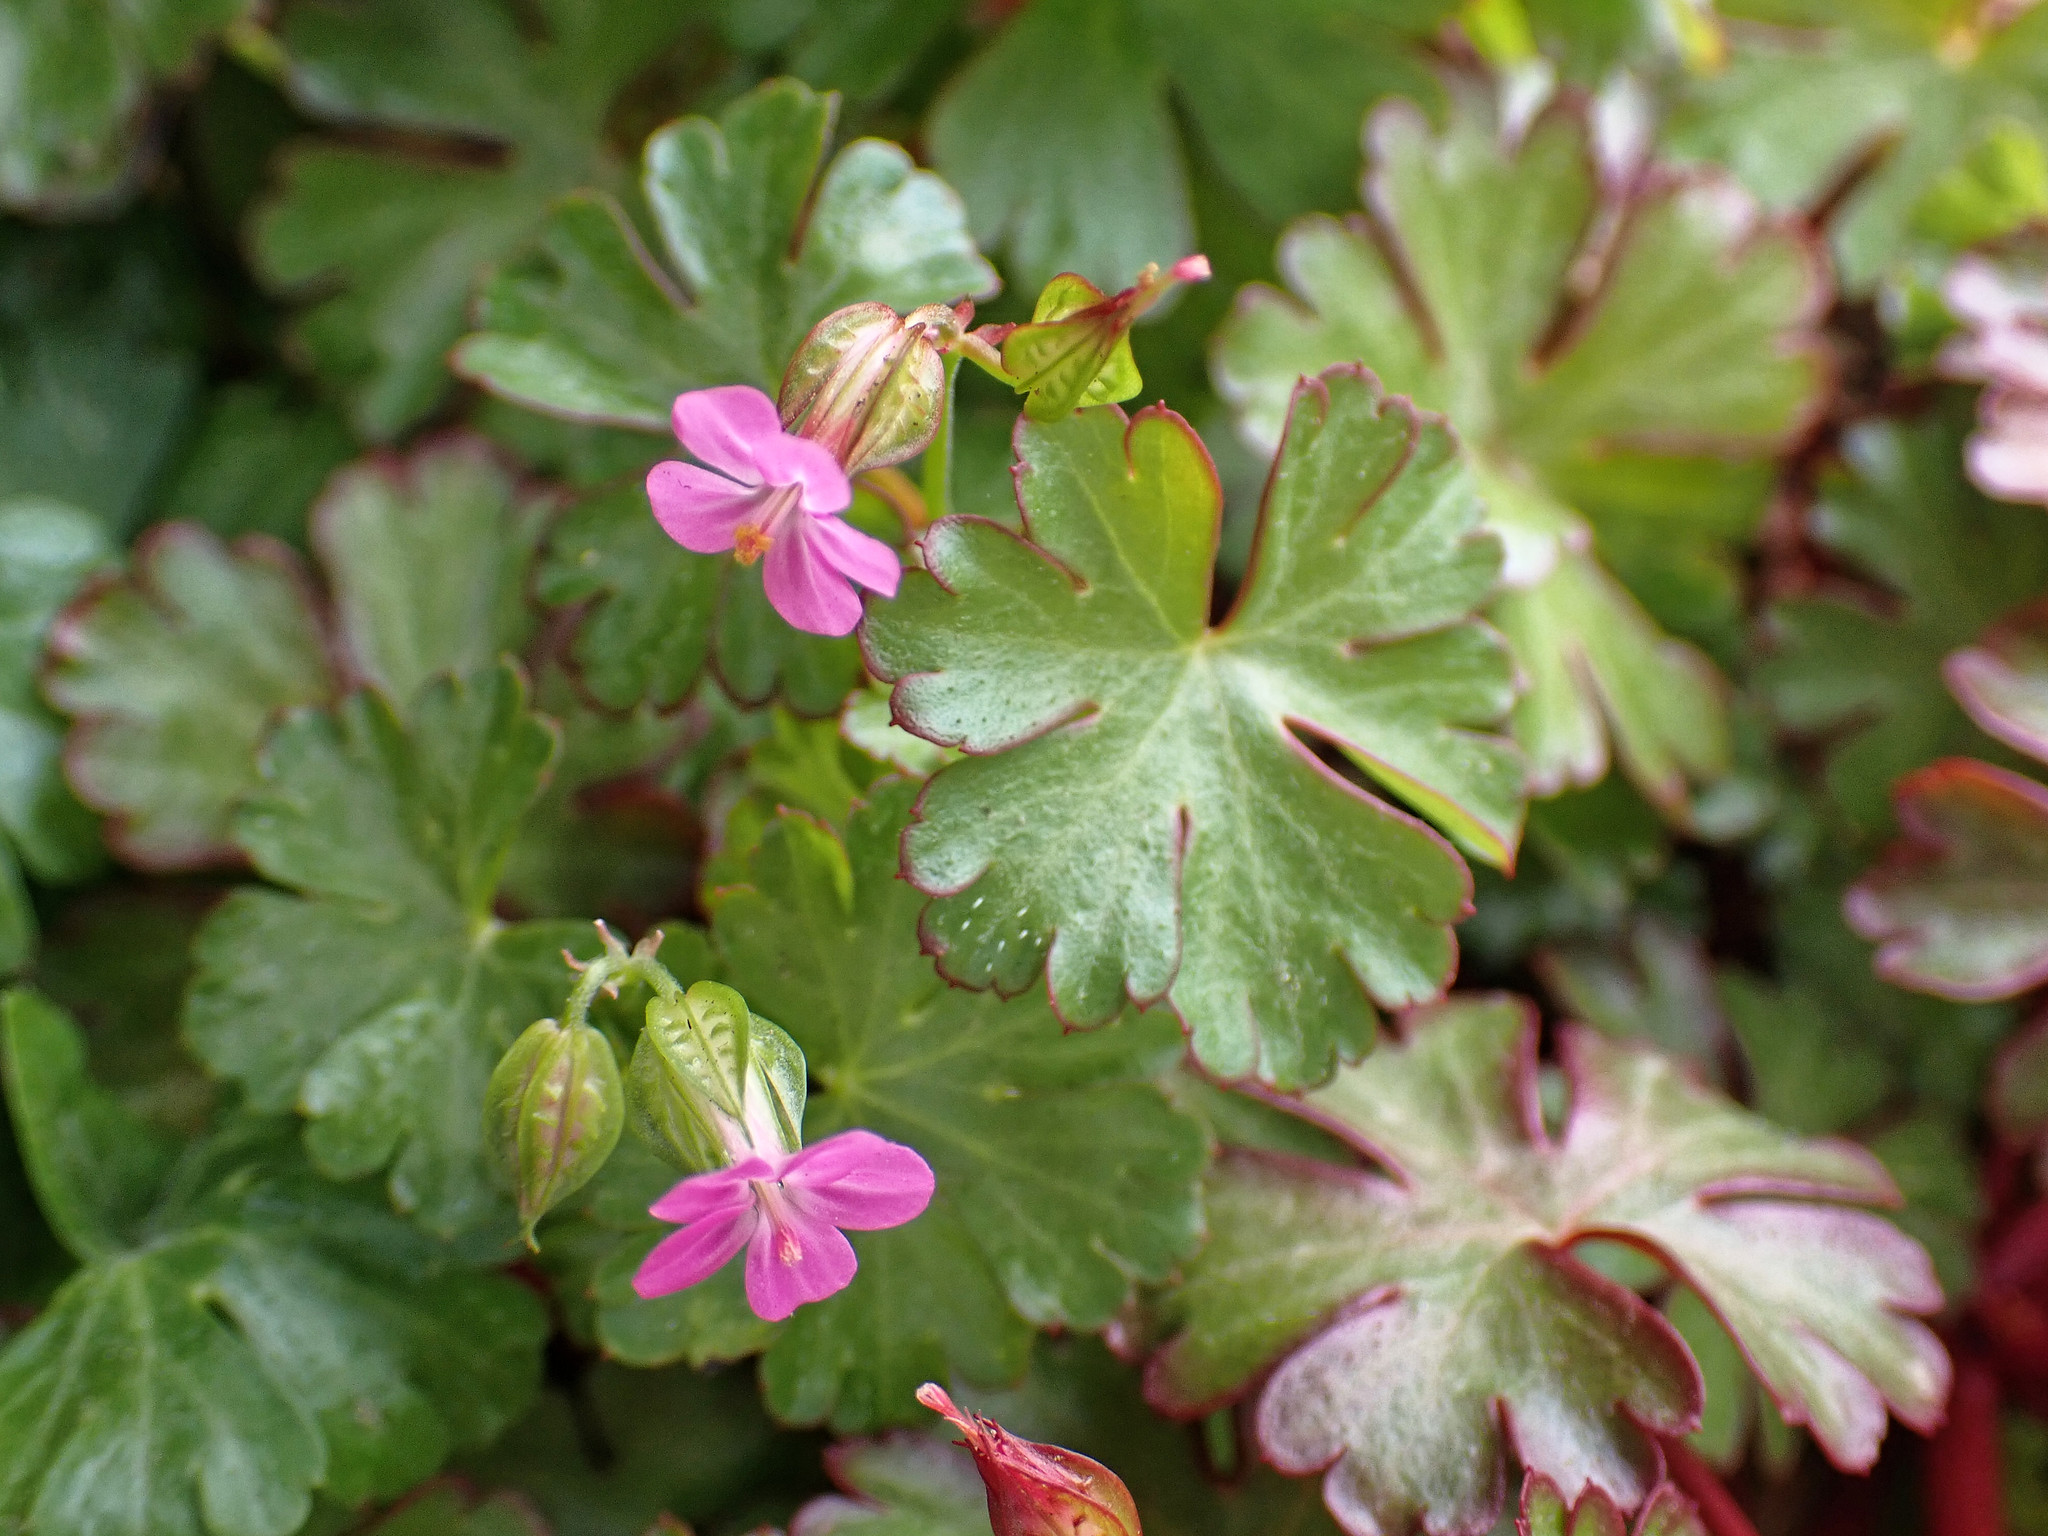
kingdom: Plantae
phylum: Tracheophyta
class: Magnoliopsida
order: Geraniales
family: Geraniaceae
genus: Geranium
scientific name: Geranium lucidum
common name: Shining crane's-bill
